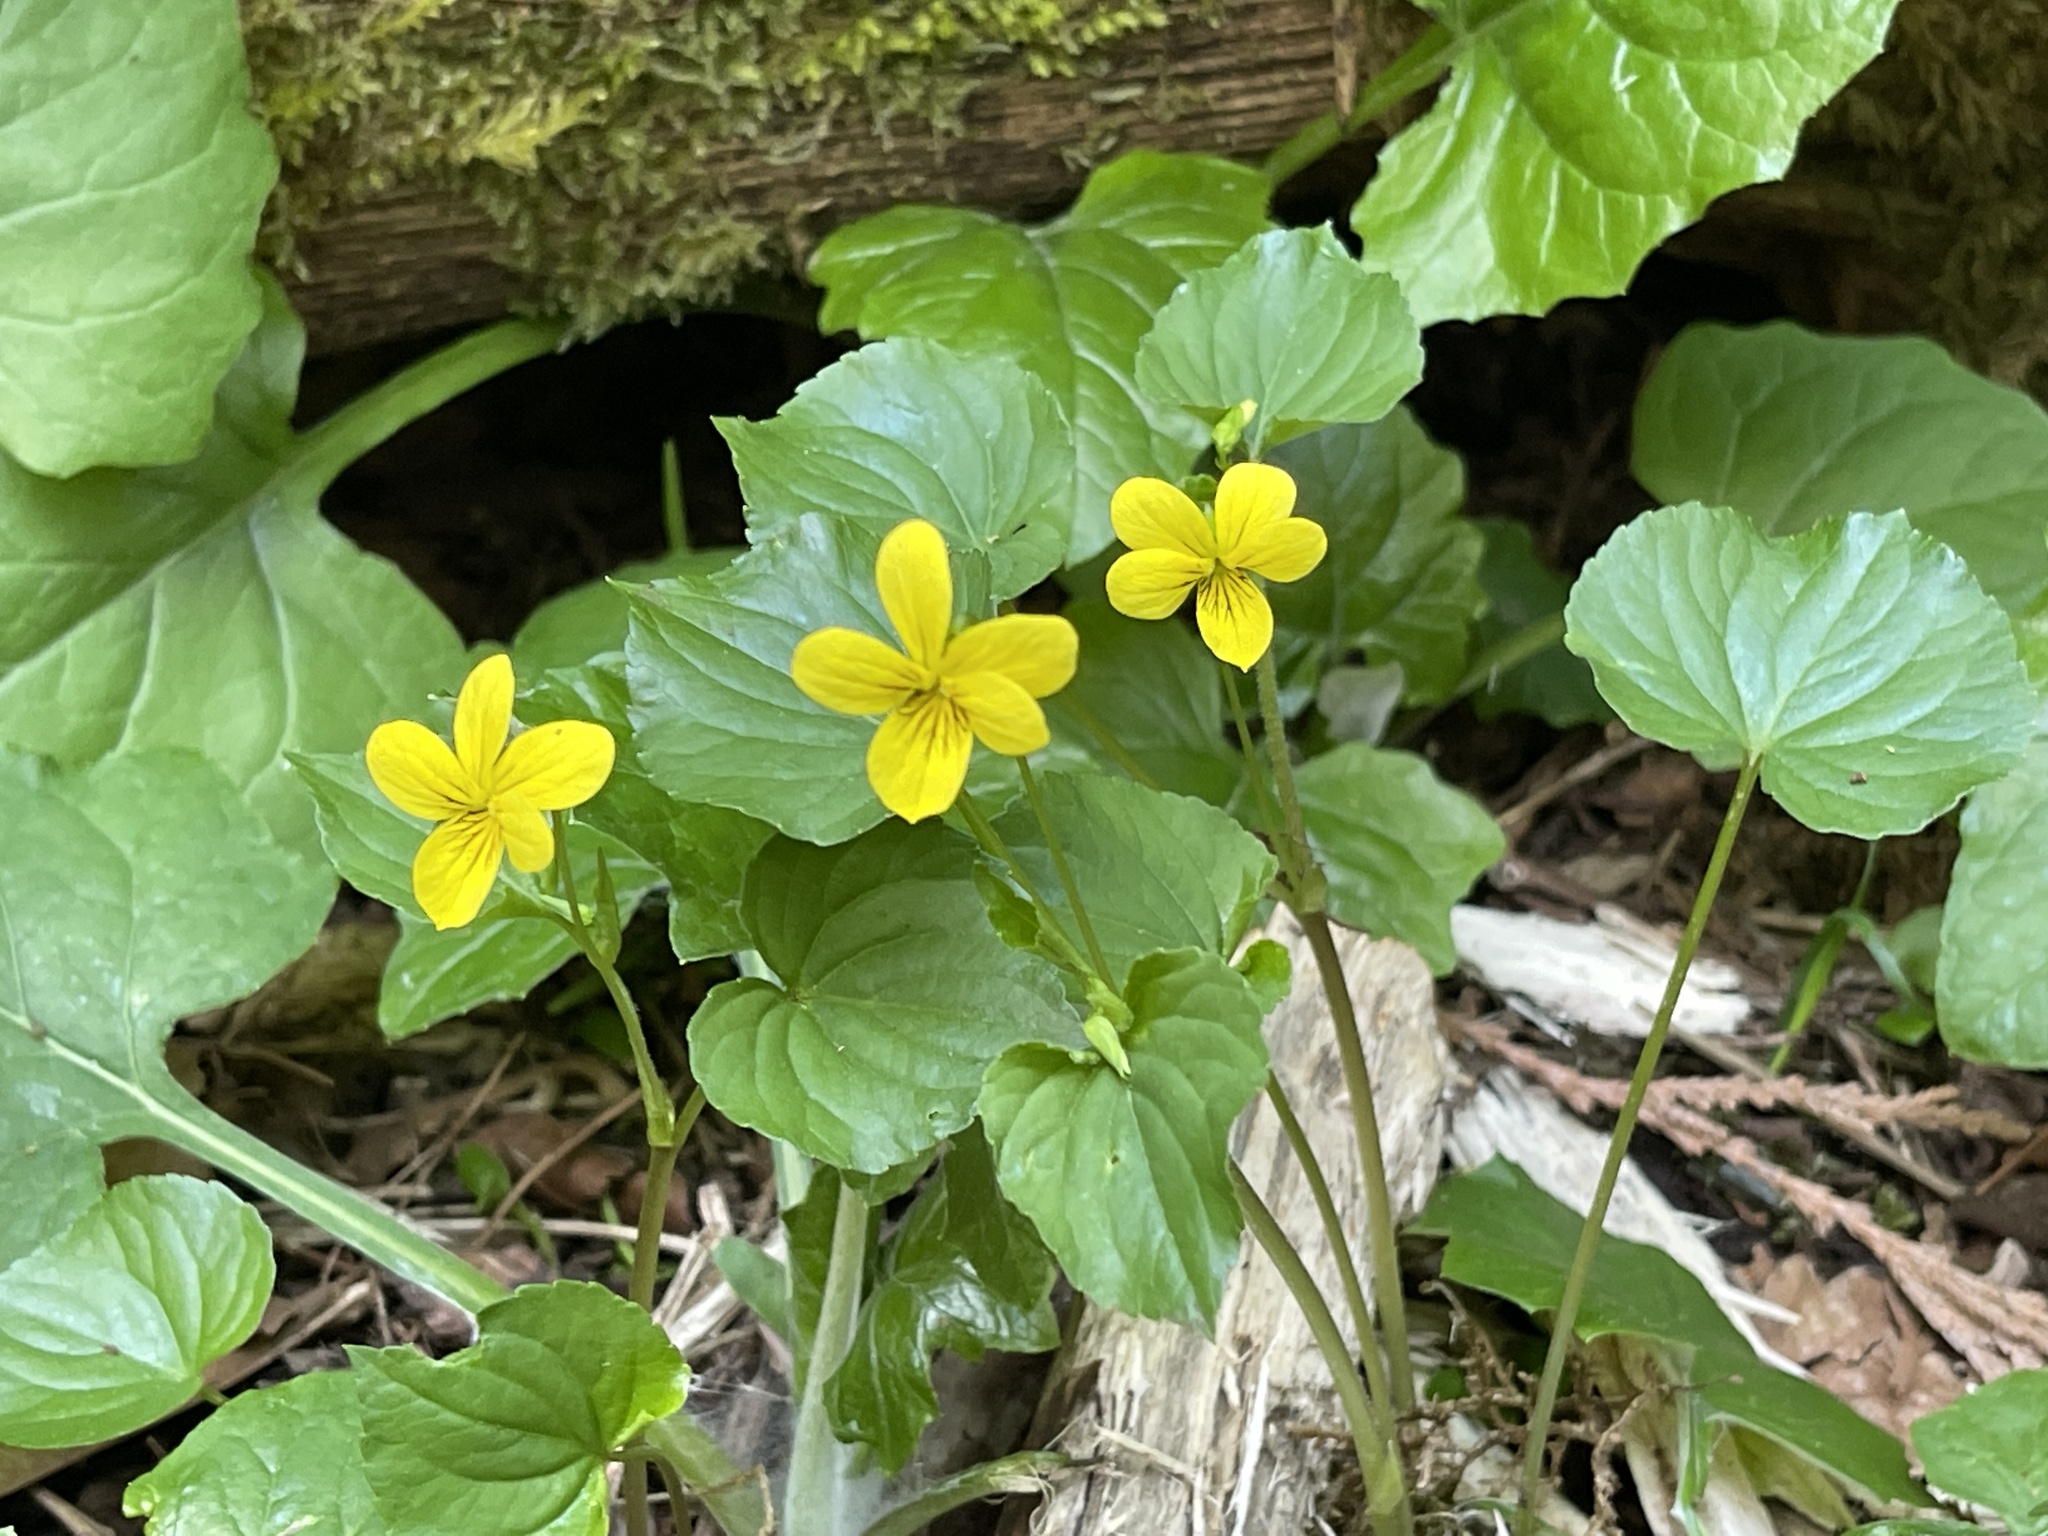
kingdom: Plantae
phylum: Tracheophyta
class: Magnoliopsida
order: Malpighiales
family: Violaceae
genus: Viola
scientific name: Viola glabella
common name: Stream violet
